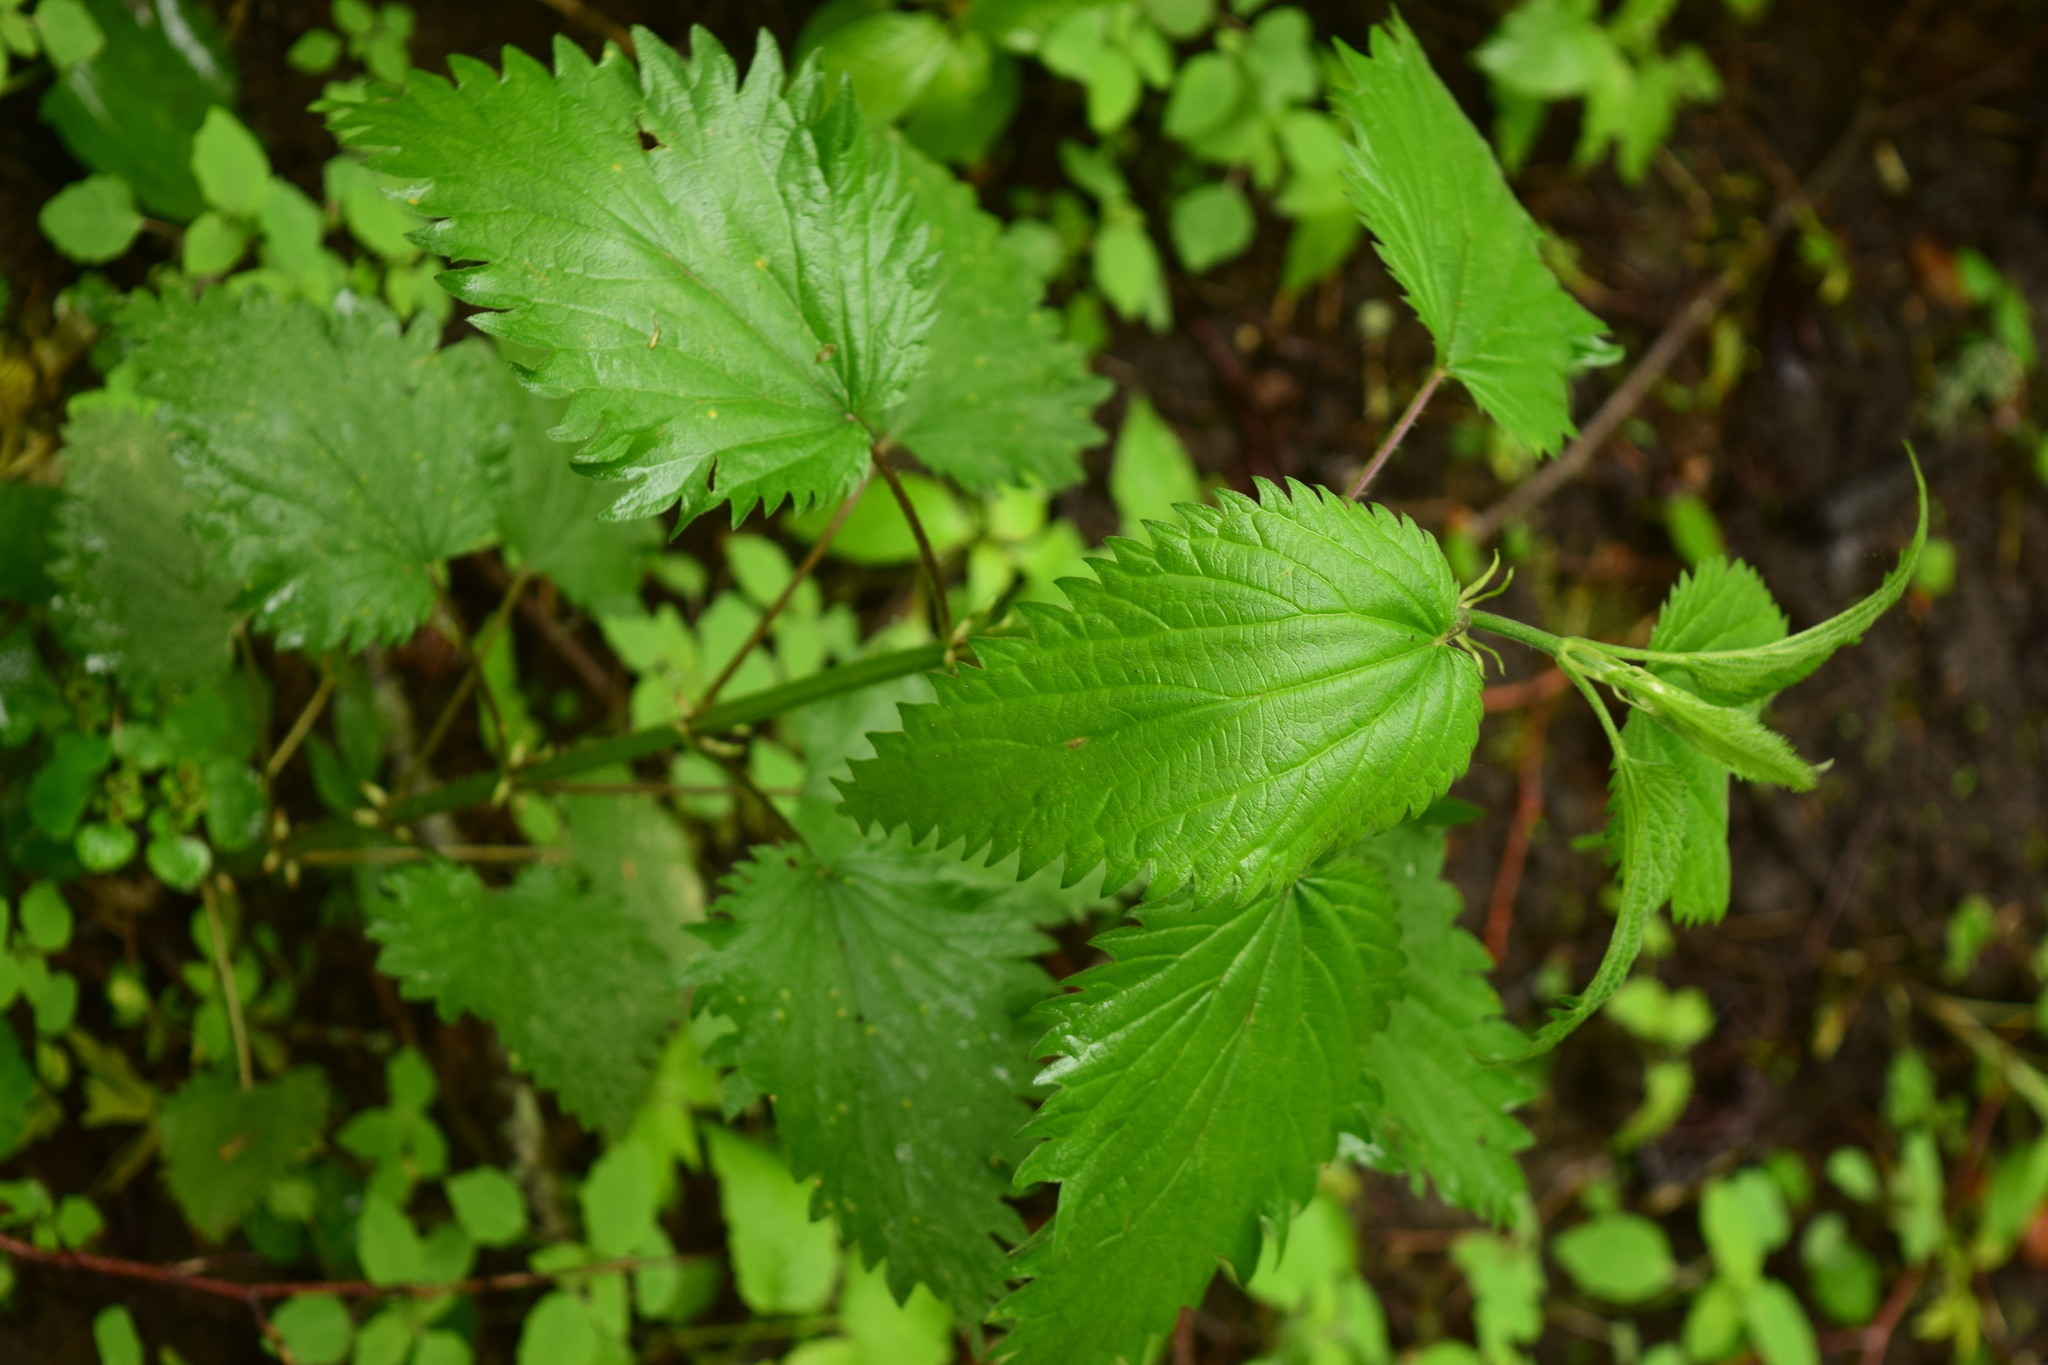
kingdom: Plantae
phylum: Tracheophyta
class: Magnoliopsida
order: Rosales
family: Urticaceae
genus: Urtica
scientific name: Urtica dioica
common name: Common nettle
